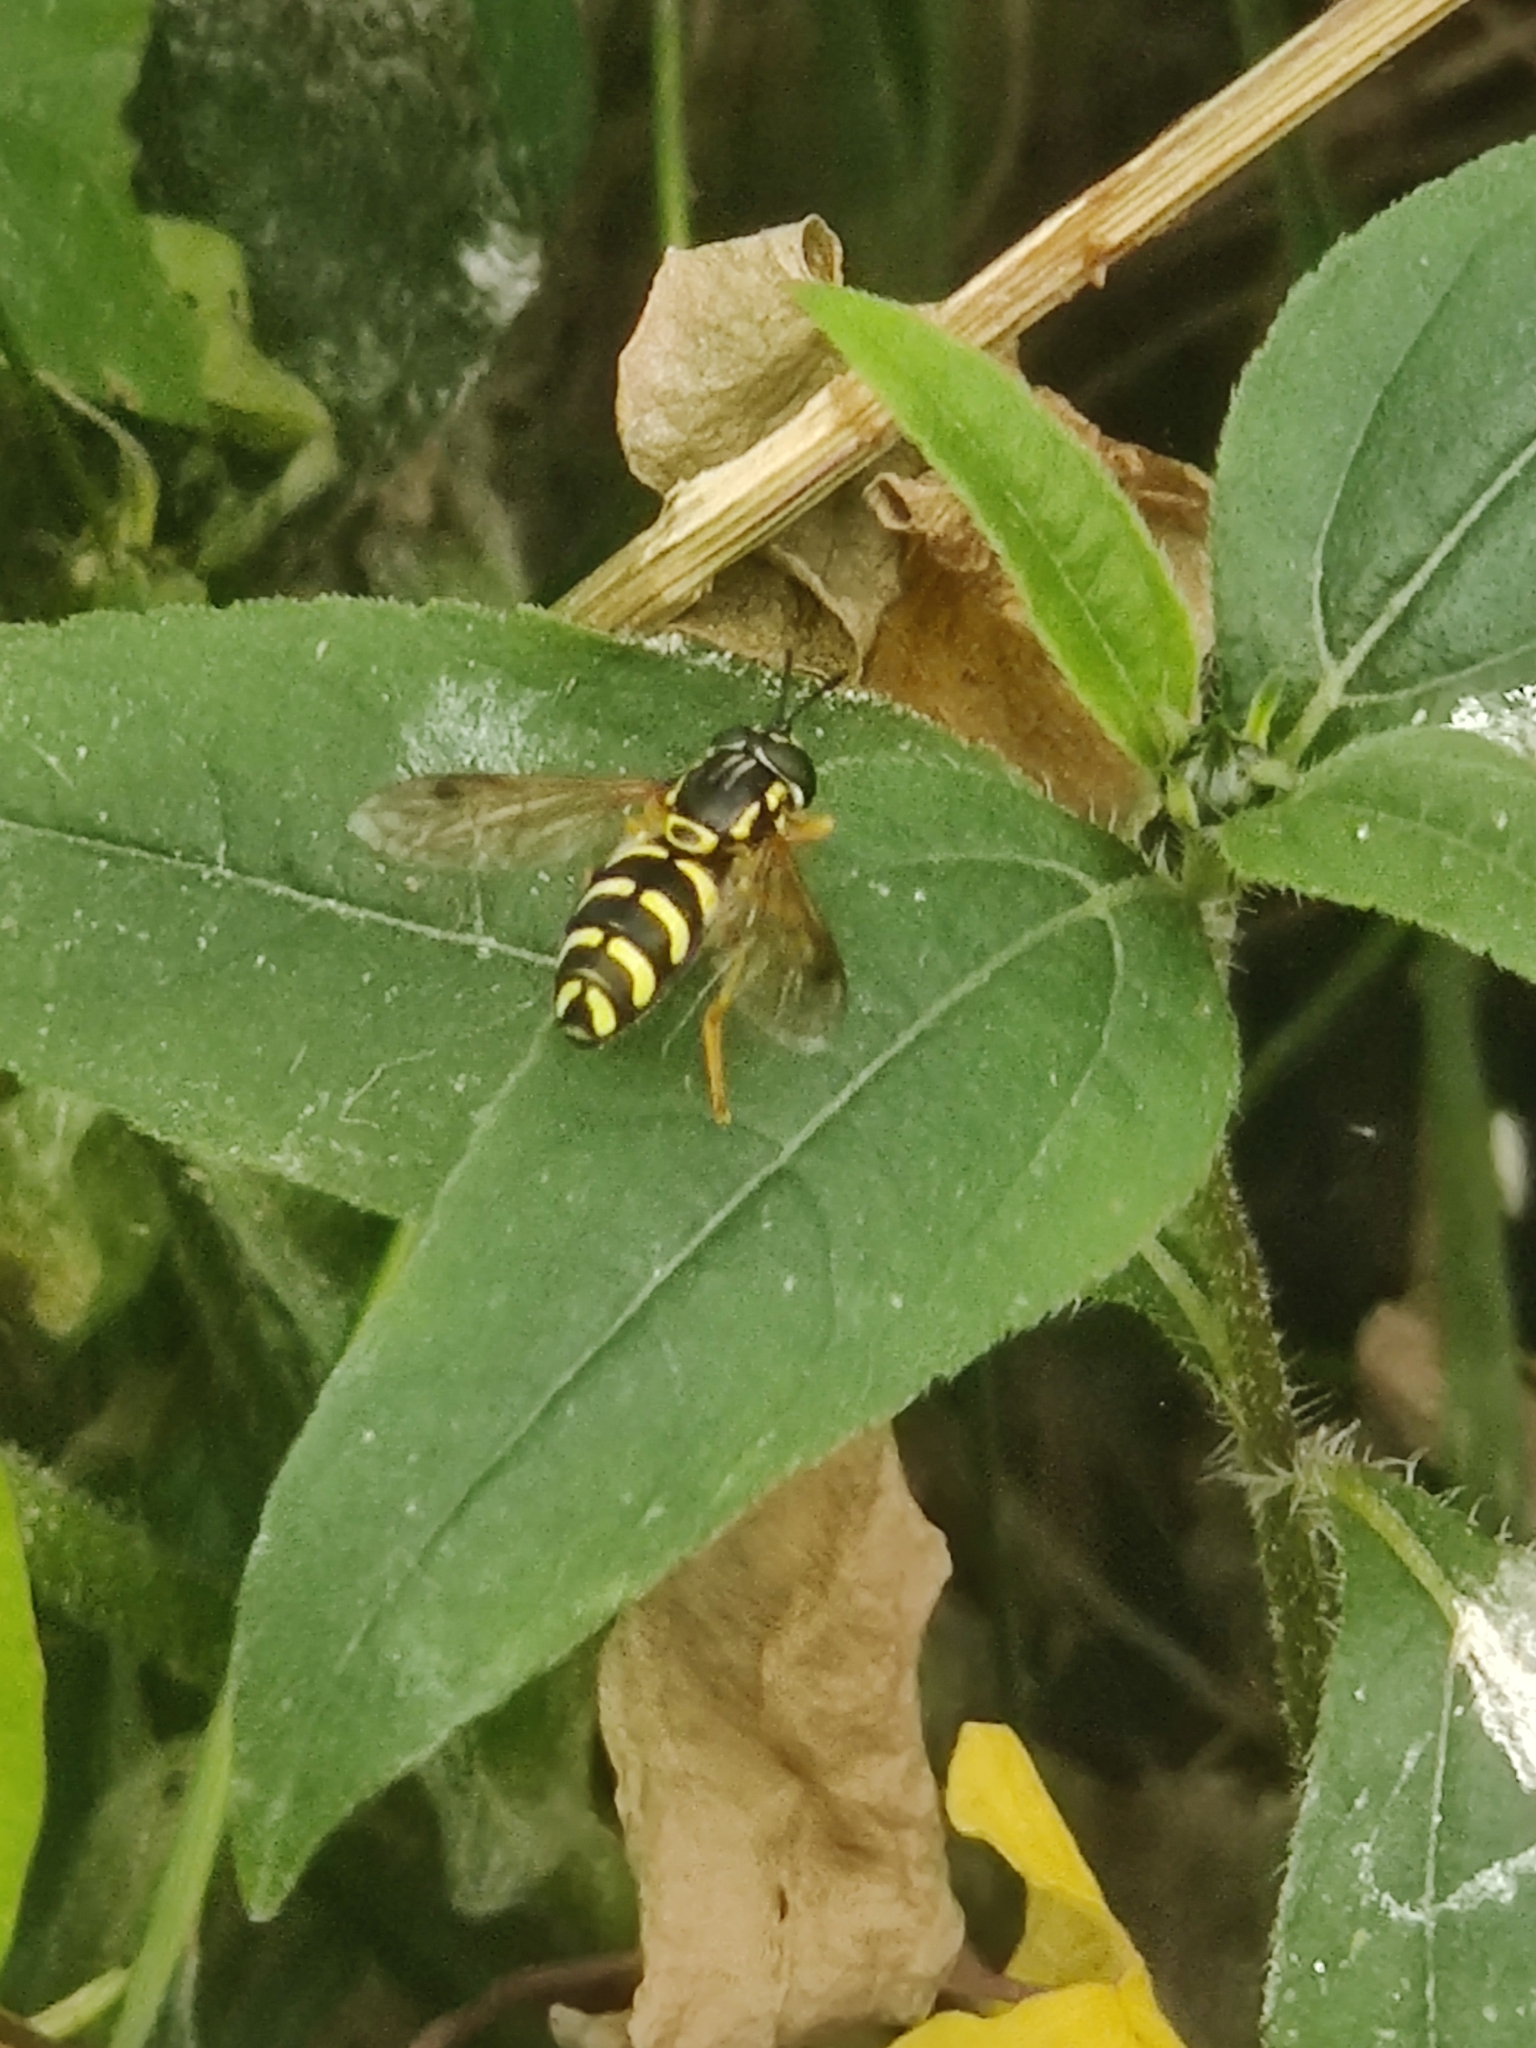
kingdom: Animalia
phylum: Arthropoda
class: Insecta
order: Diptera
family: Syrphidae
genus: Chrysotoxum
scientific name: Chrysotoxum festivum
